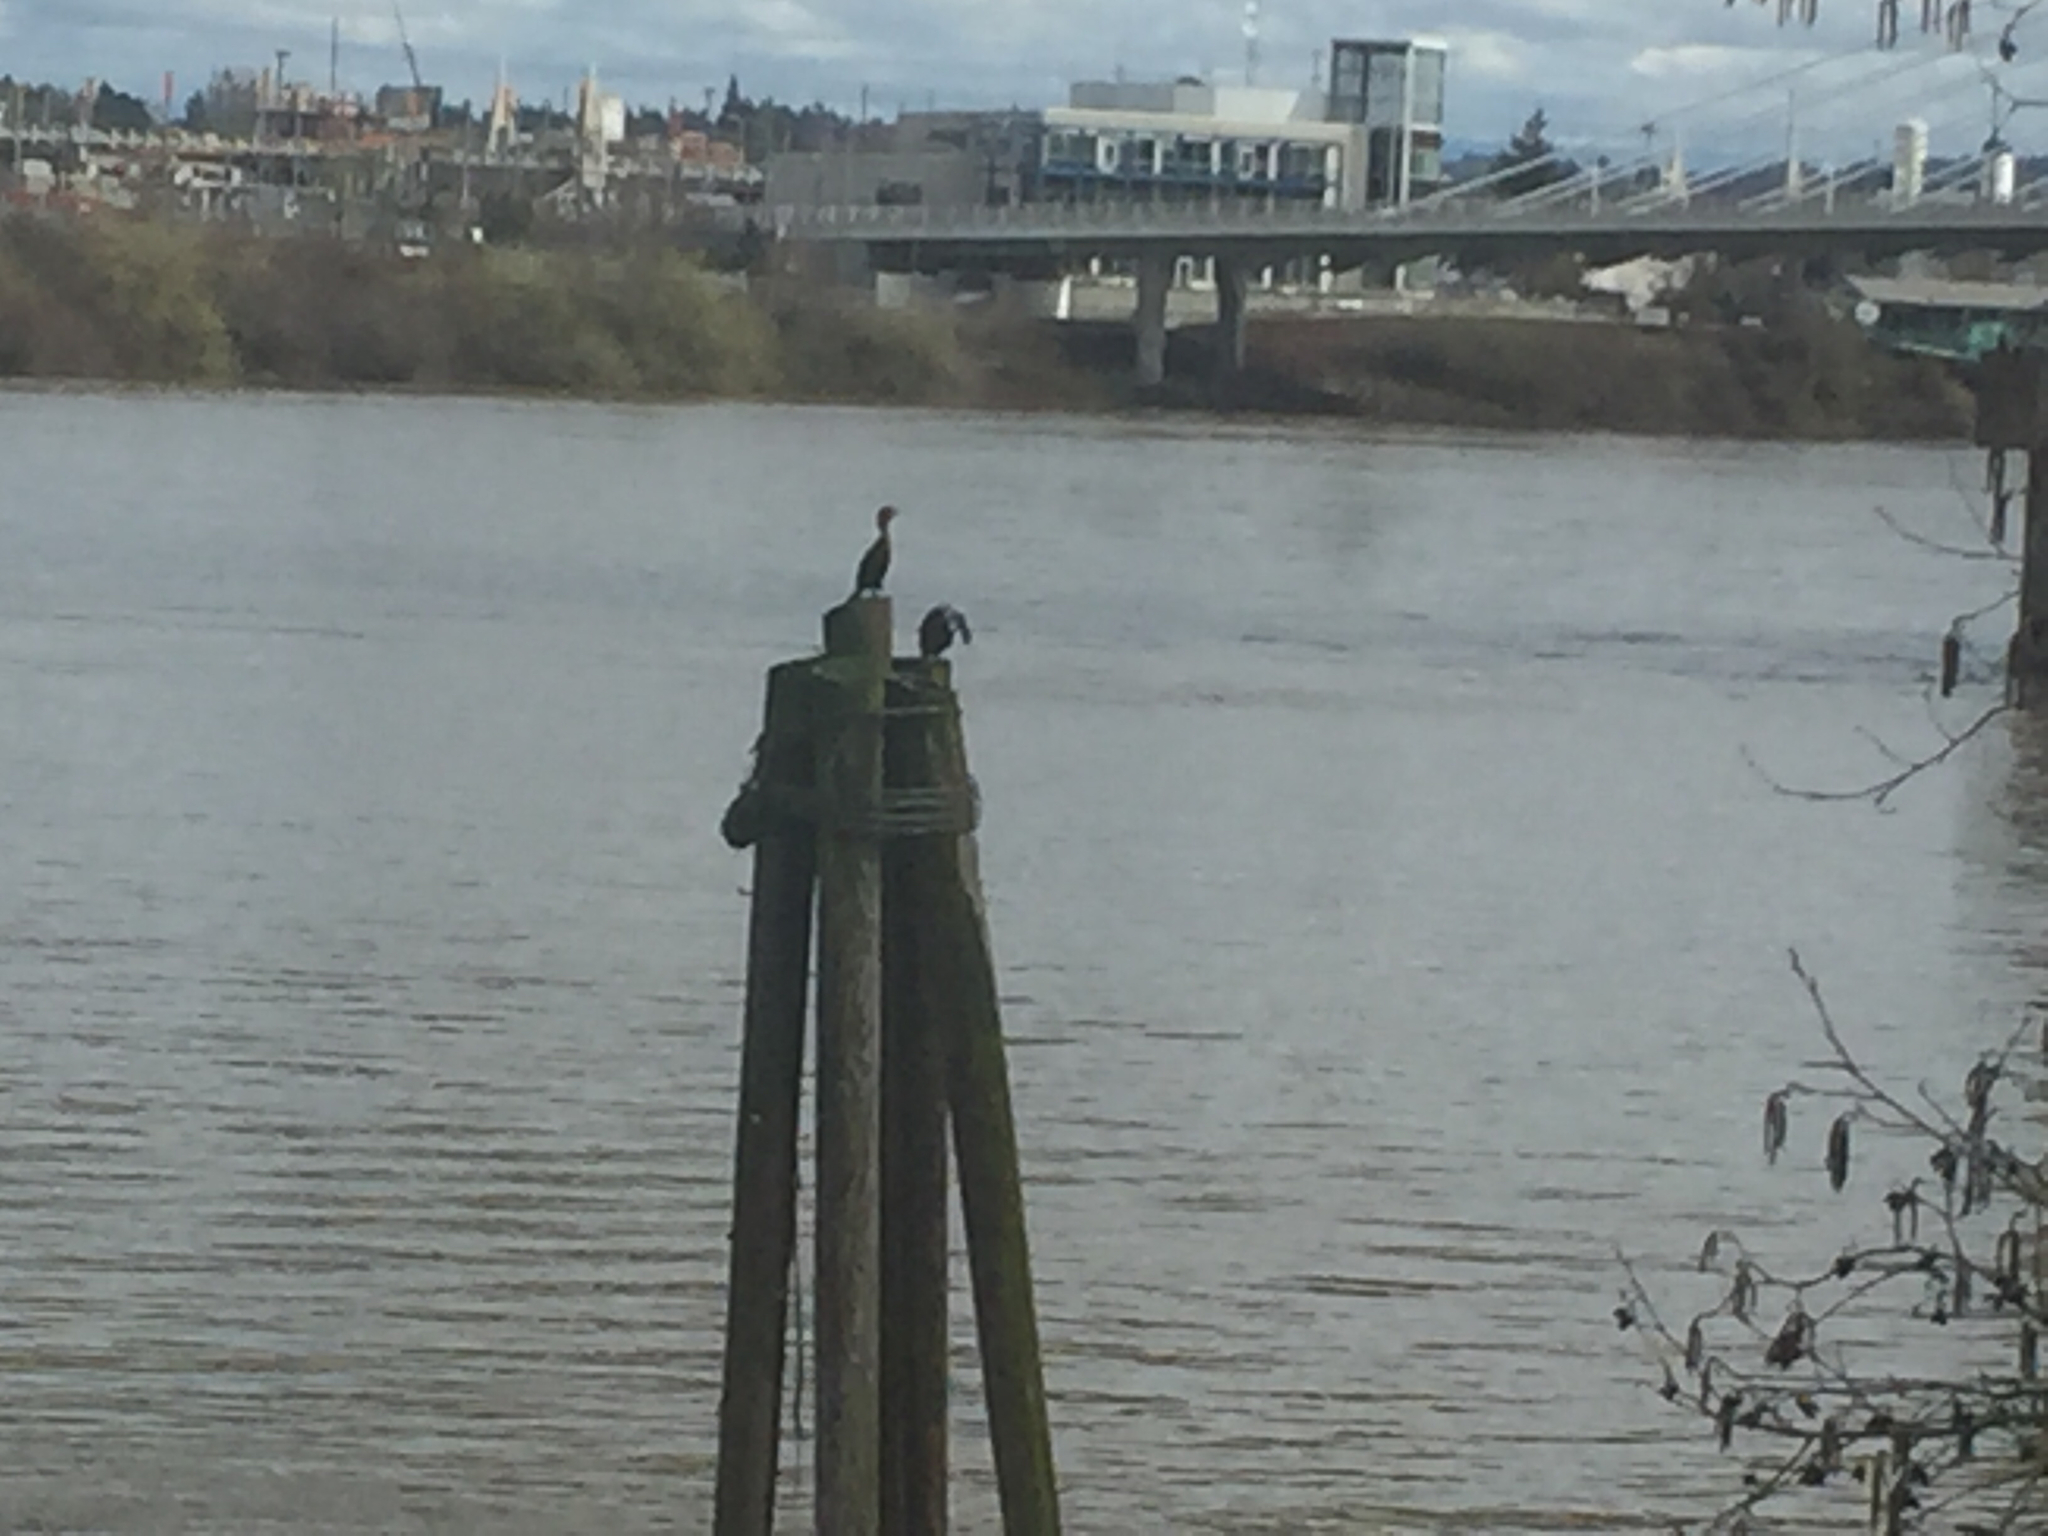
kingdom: Animalia
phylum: Chordata
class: Aves
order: Suliformes
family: Phalacrocoracidae
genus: Phalacrocorax
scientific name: Phalacrocorax auritus
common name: Double-crested cormorant
